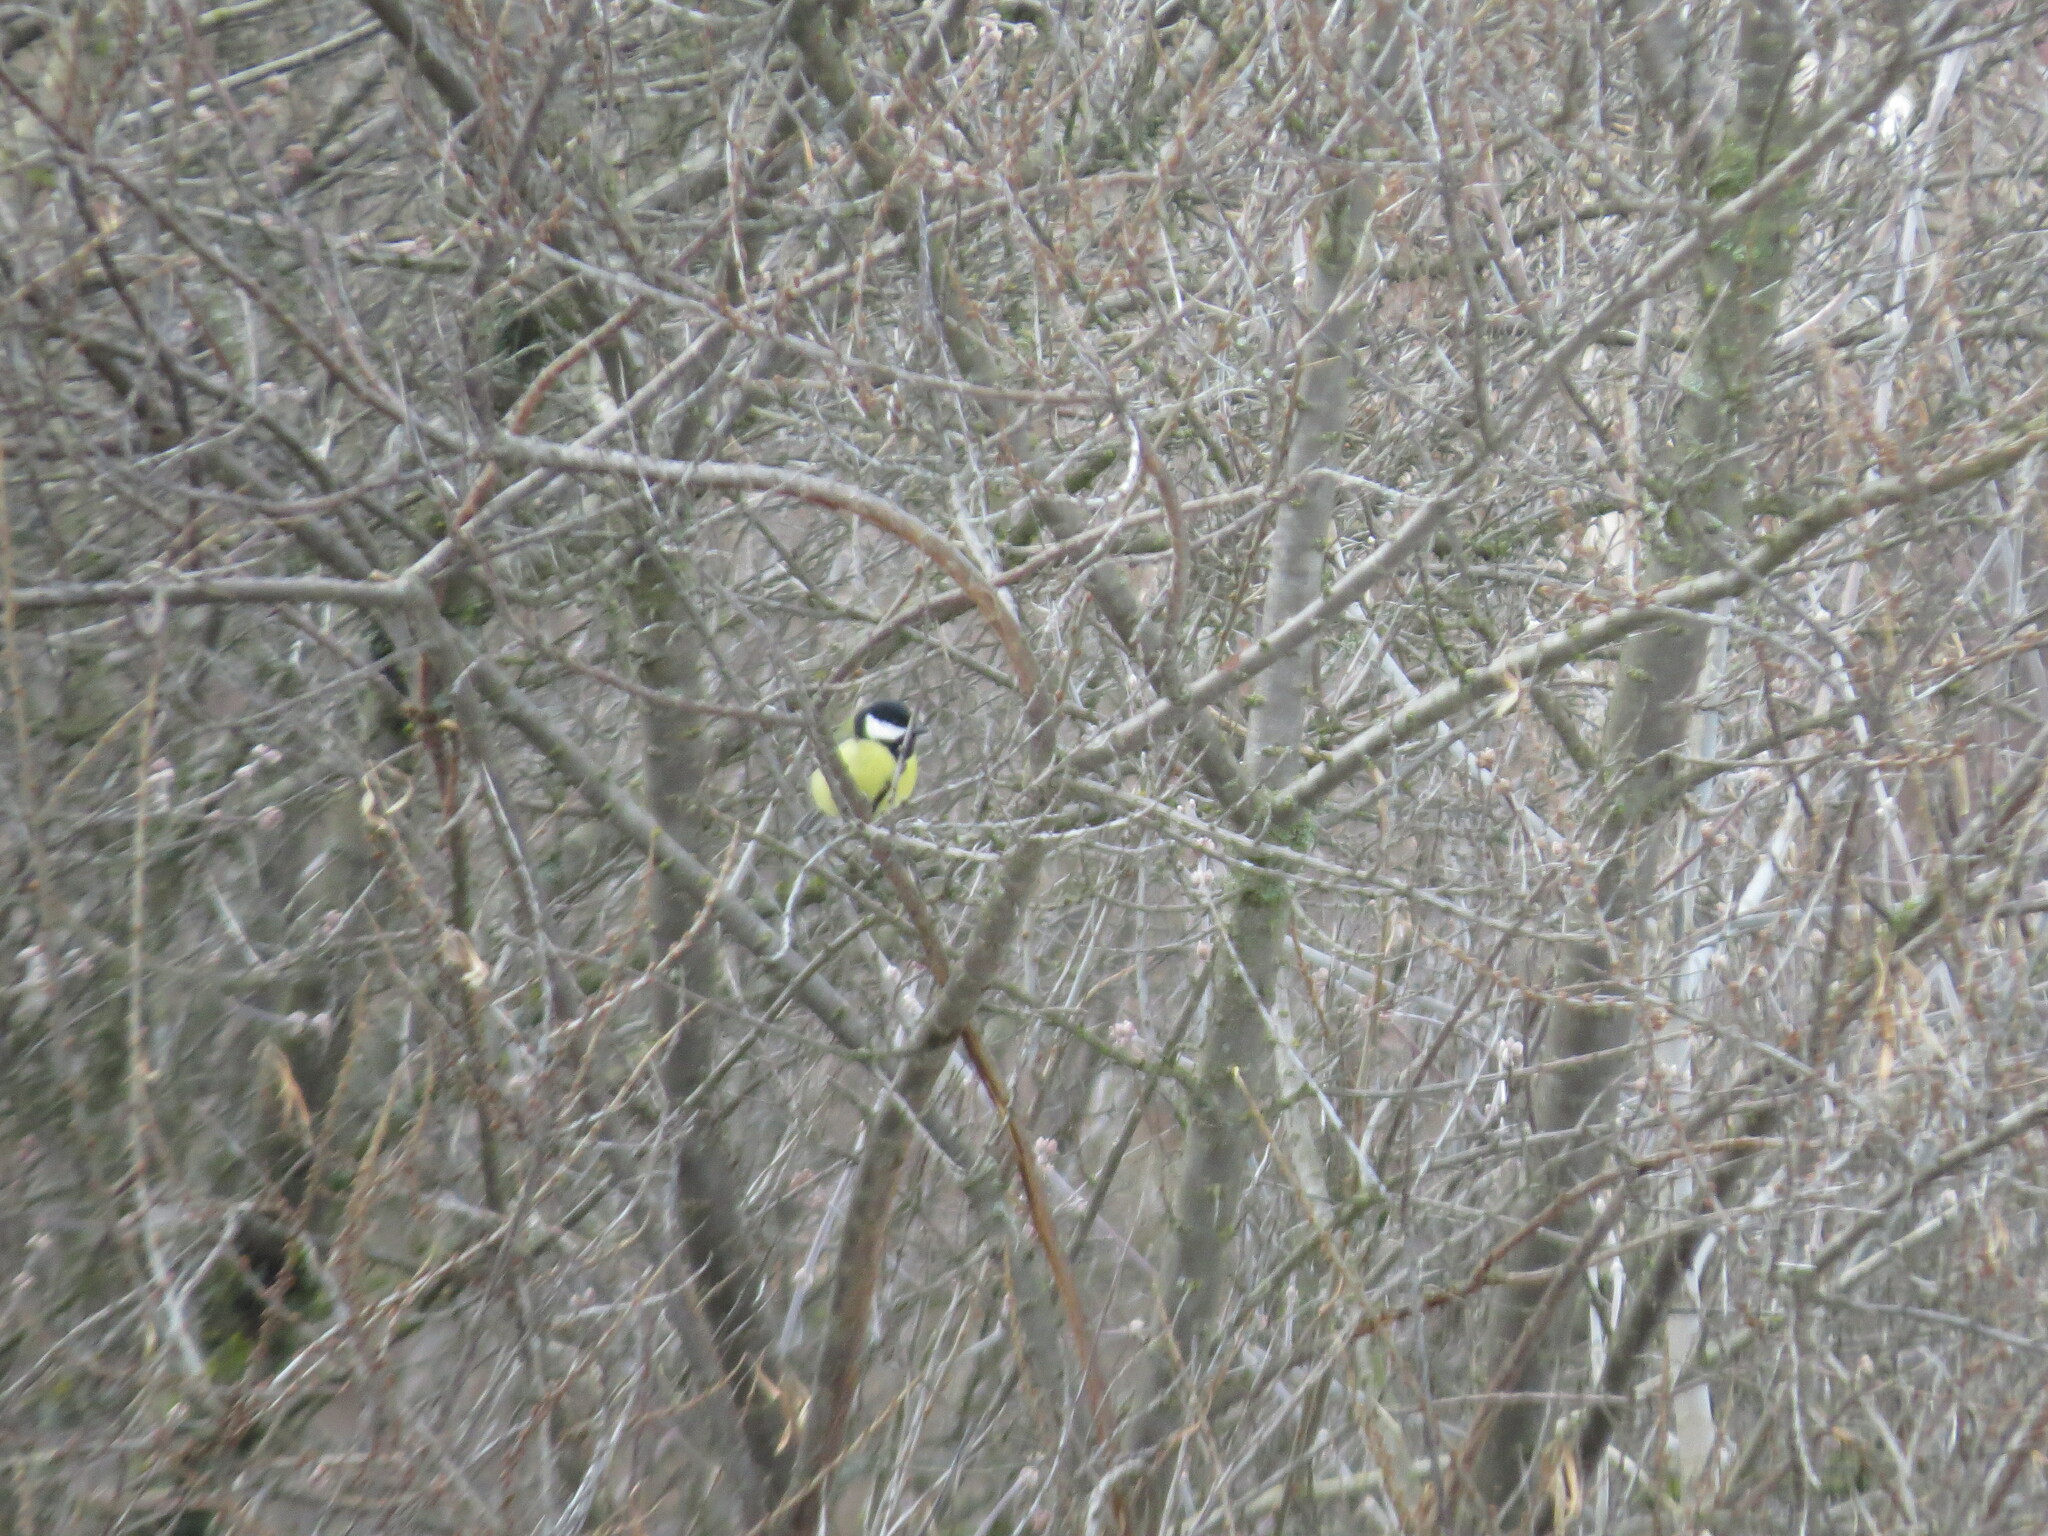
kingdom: Animalia
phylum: Chordata
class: Aves
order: Passeriformes
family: Paridae
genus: Parus
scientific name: Parus major
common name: Great tit
